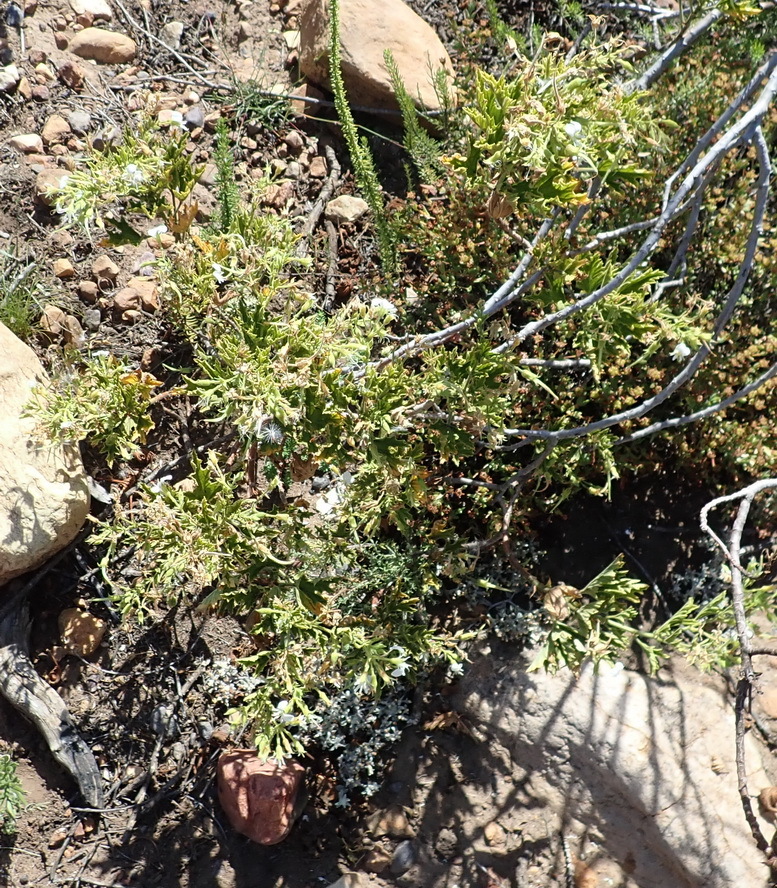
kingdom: Plantae
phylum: Tracheophyta
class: Magnoliopsida
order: Geraniales
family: Geraniaceae
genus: Pelargonium
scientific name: Pelargonium ribifolium
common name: Currant-leaf pelargonium
